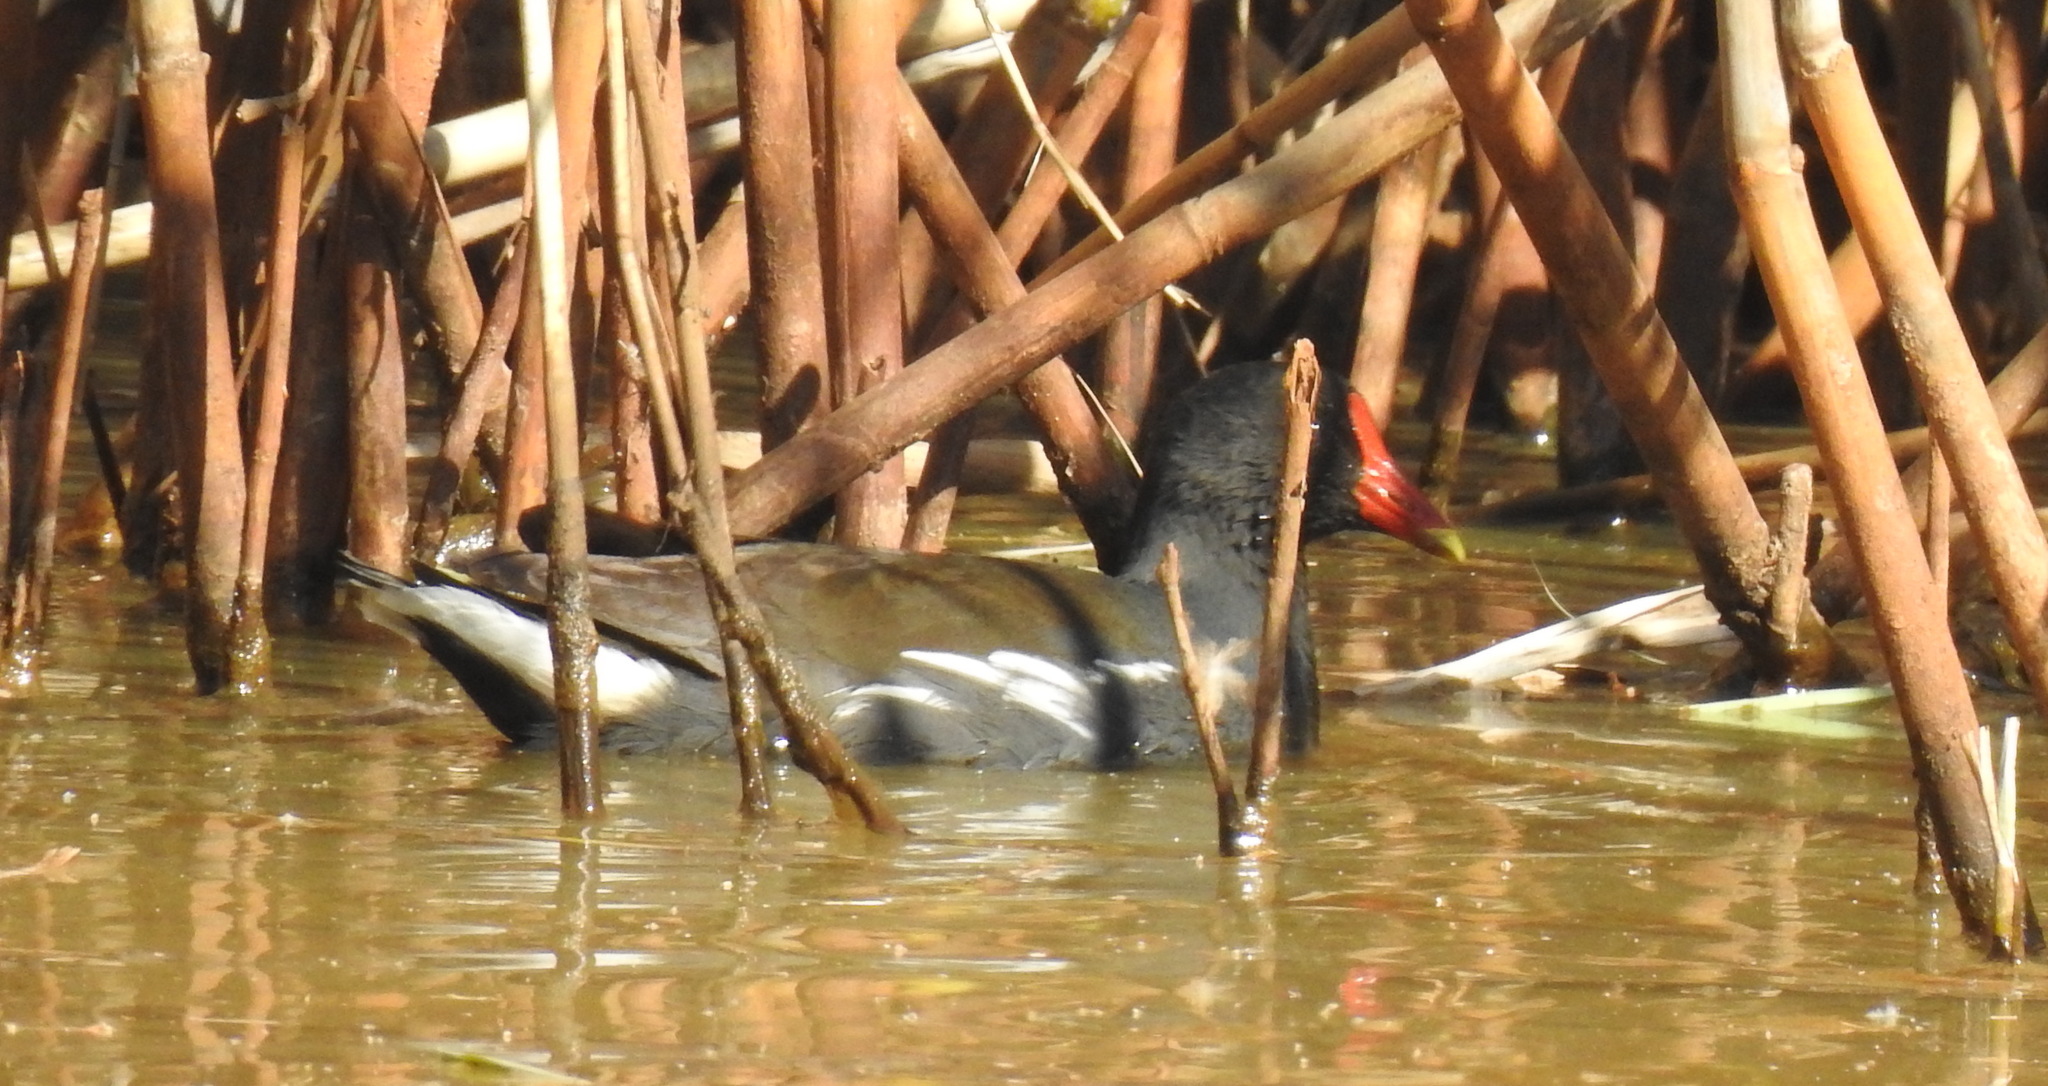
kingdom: Animalia
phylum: Chordata
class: Aves
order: Gruiformes
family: Rallidae
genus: Gallinula
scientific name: Gallinula chloropus
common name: Common moorhen
